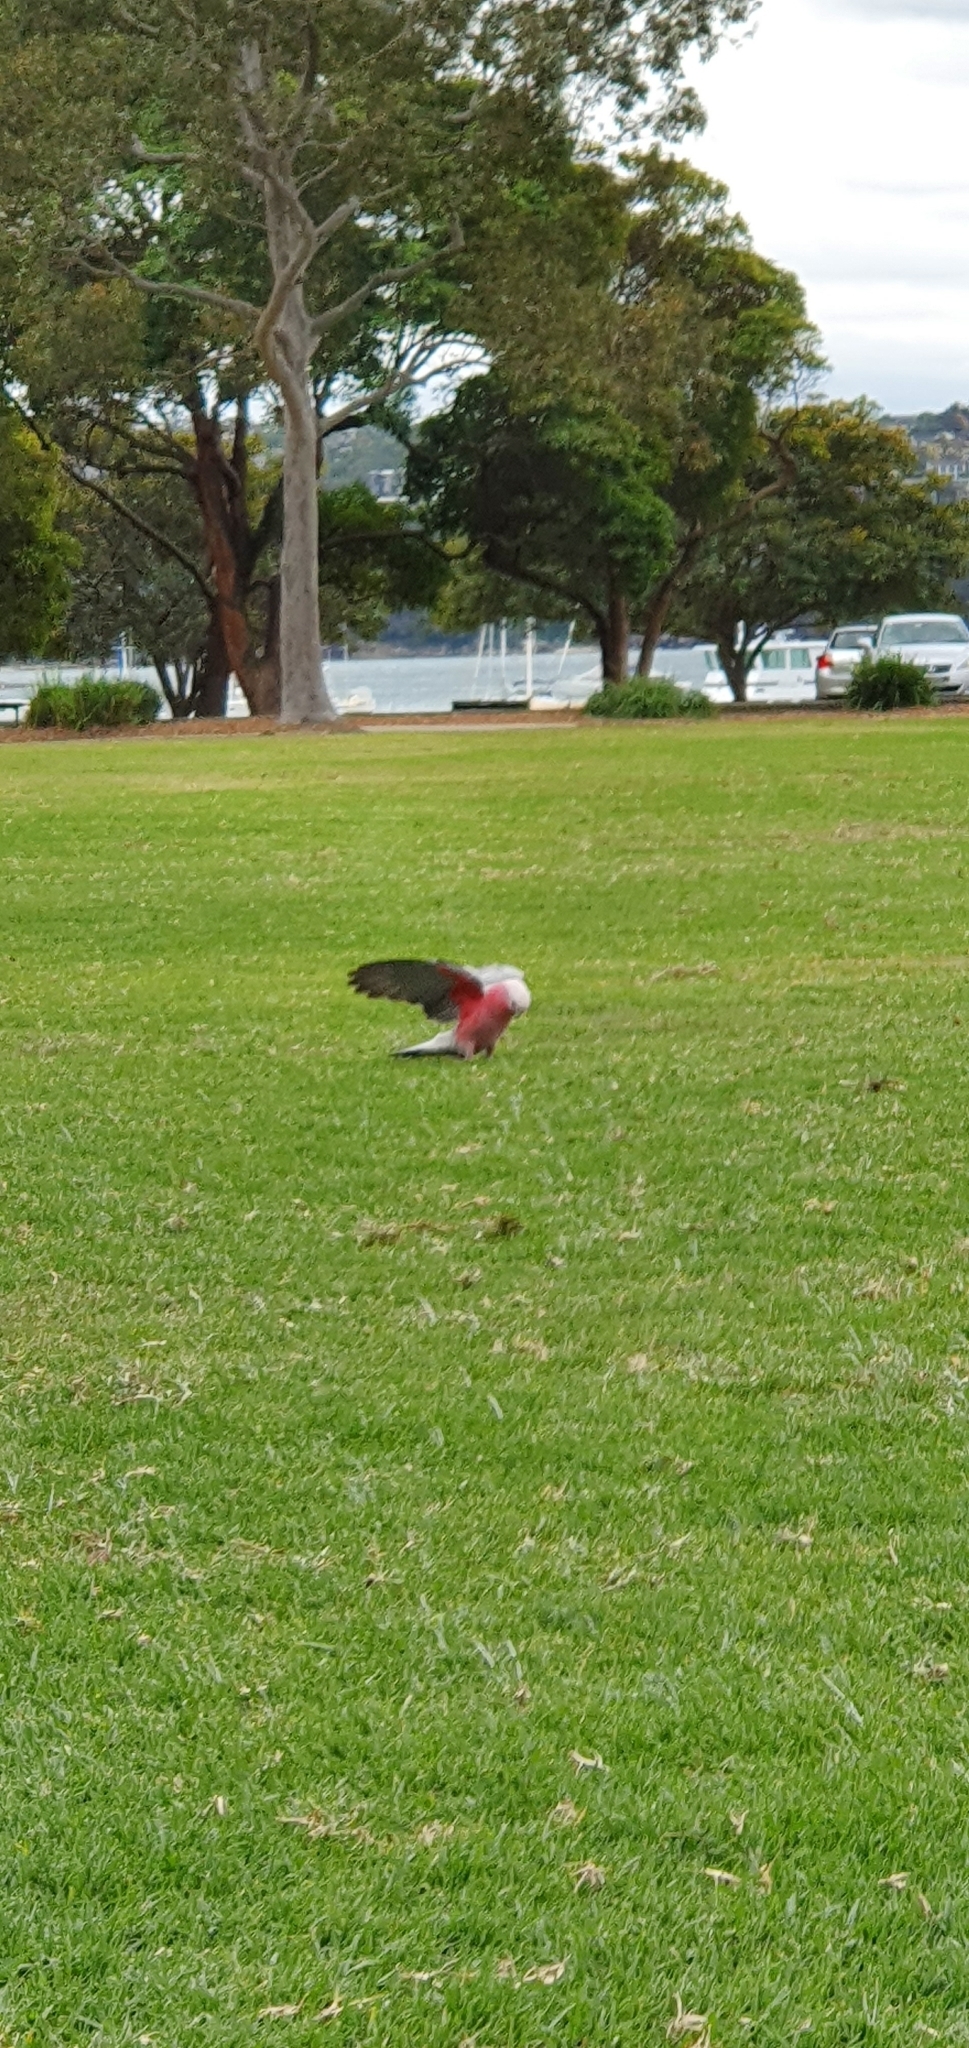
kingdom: Animalia
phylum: Chordata
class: Aves
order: Psittaciformes
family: Psittacidae
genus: Eolophus
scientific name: Eolophus roseicapilla
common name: Galah
